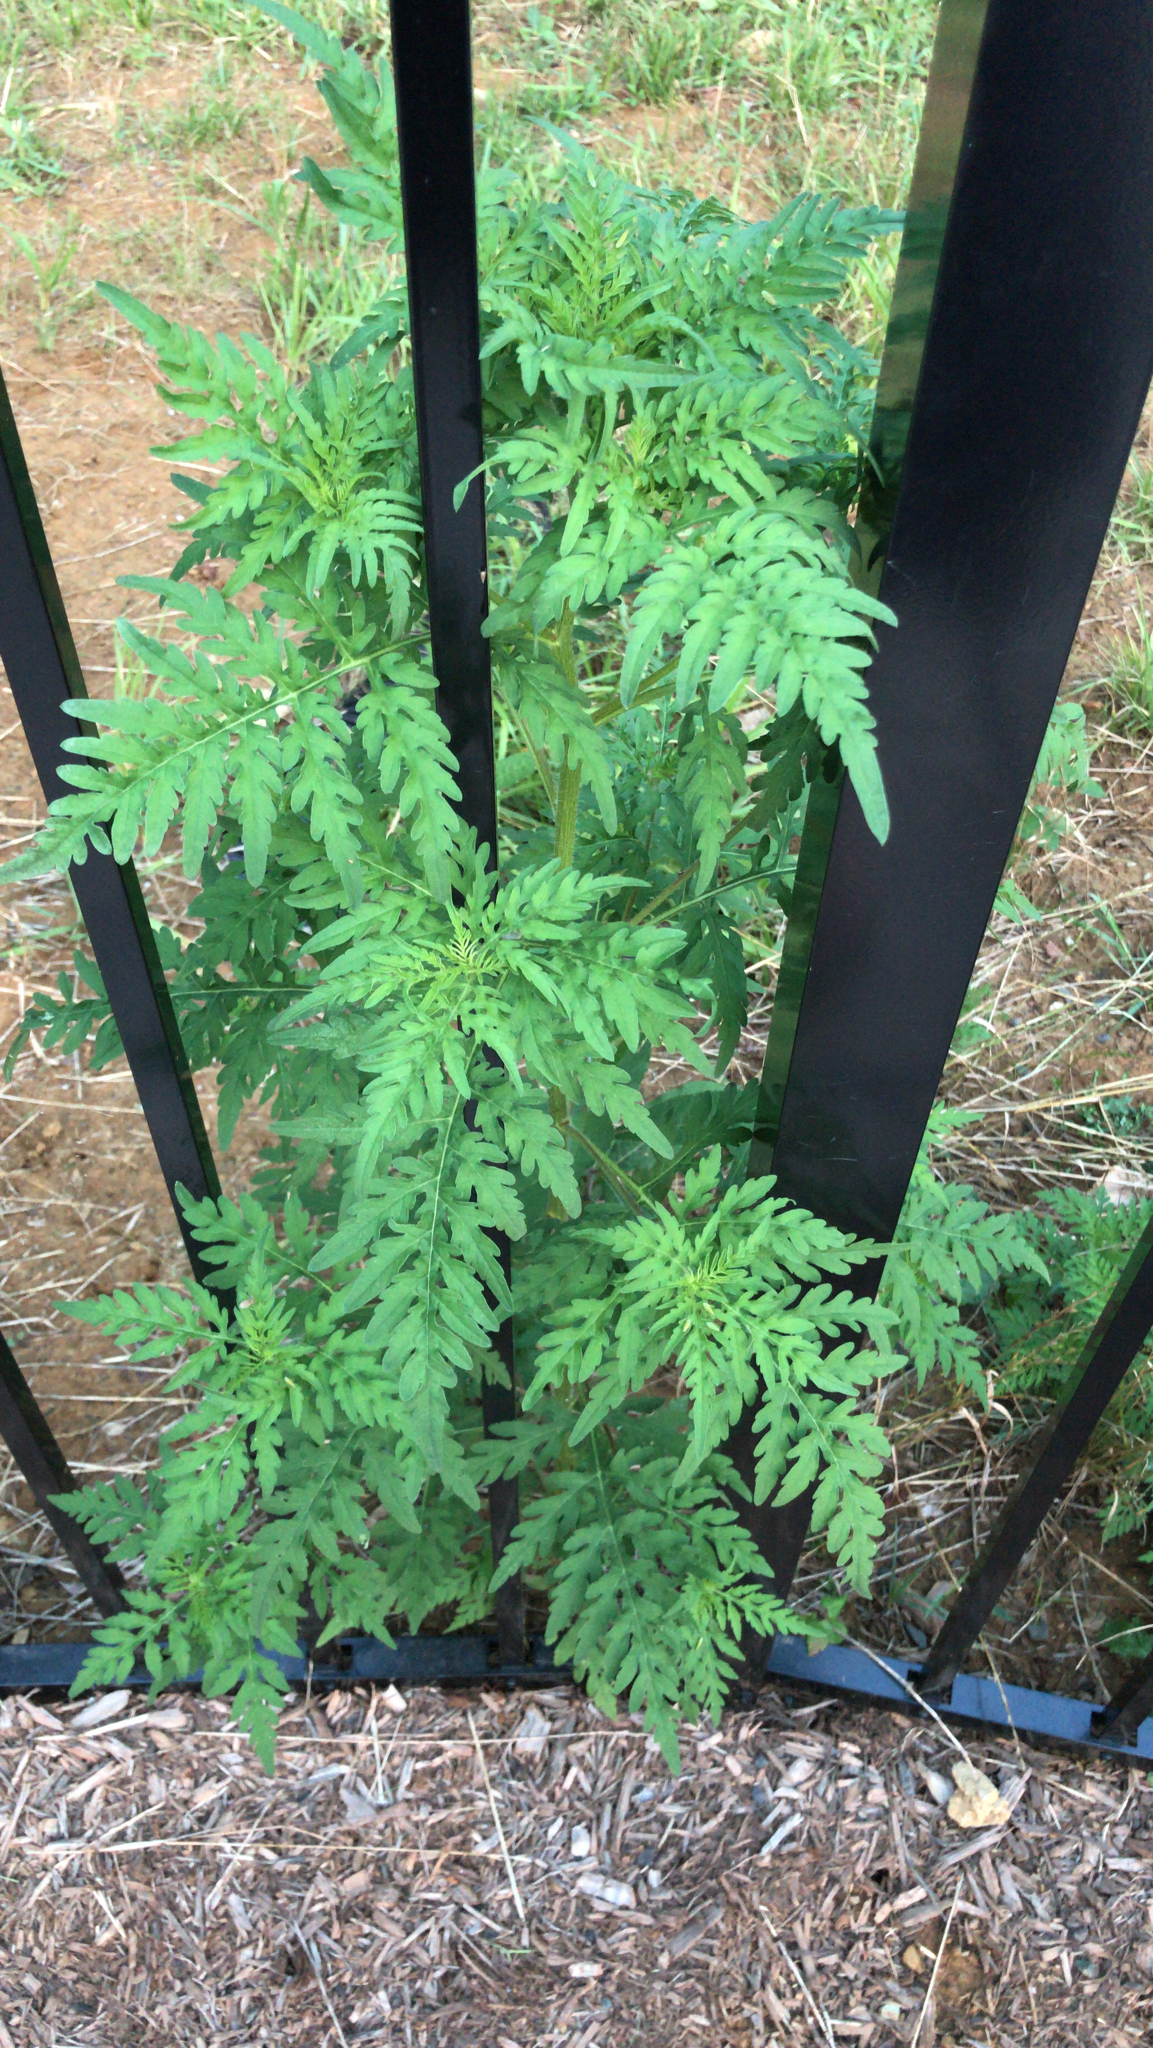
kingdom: Plantae
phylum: Tracheophyta
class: Magnoliopsida
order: Asterales
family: Asteraceae
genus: Ambrosia
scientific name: Ambrosia artemisiifolia
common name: Annual ragweed
